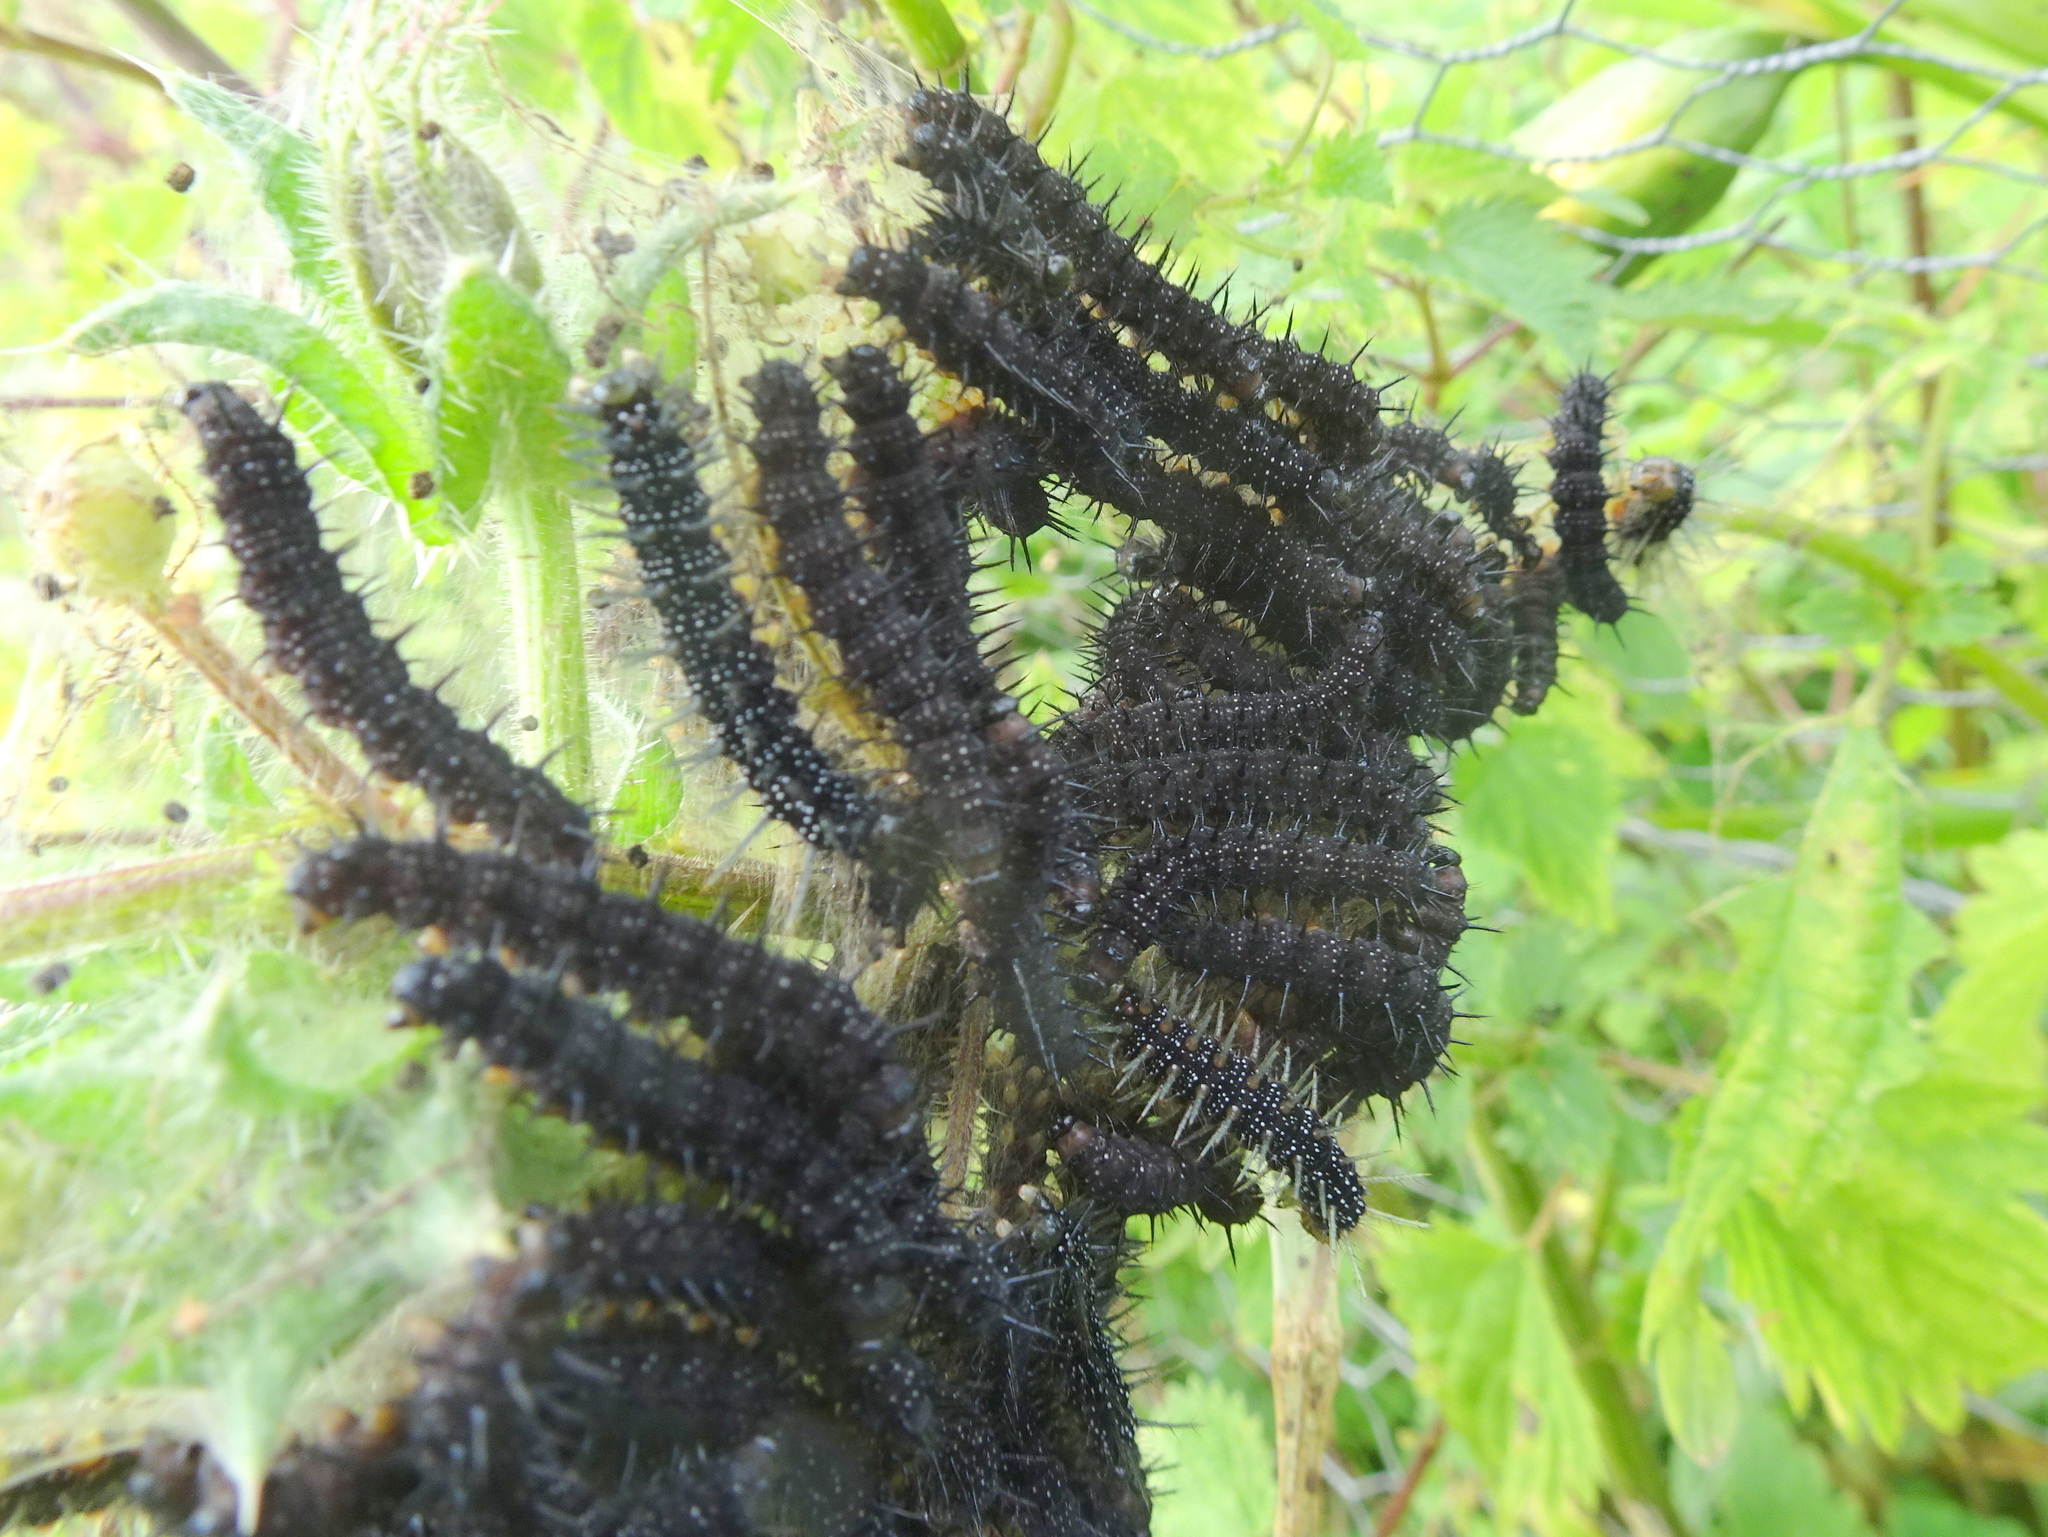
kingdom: Animalia
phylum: Arthropoda
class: Insecta
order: Lepidoptera
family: Nymphalidae
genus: Aglais
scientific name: Aglais io
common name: Peacock
